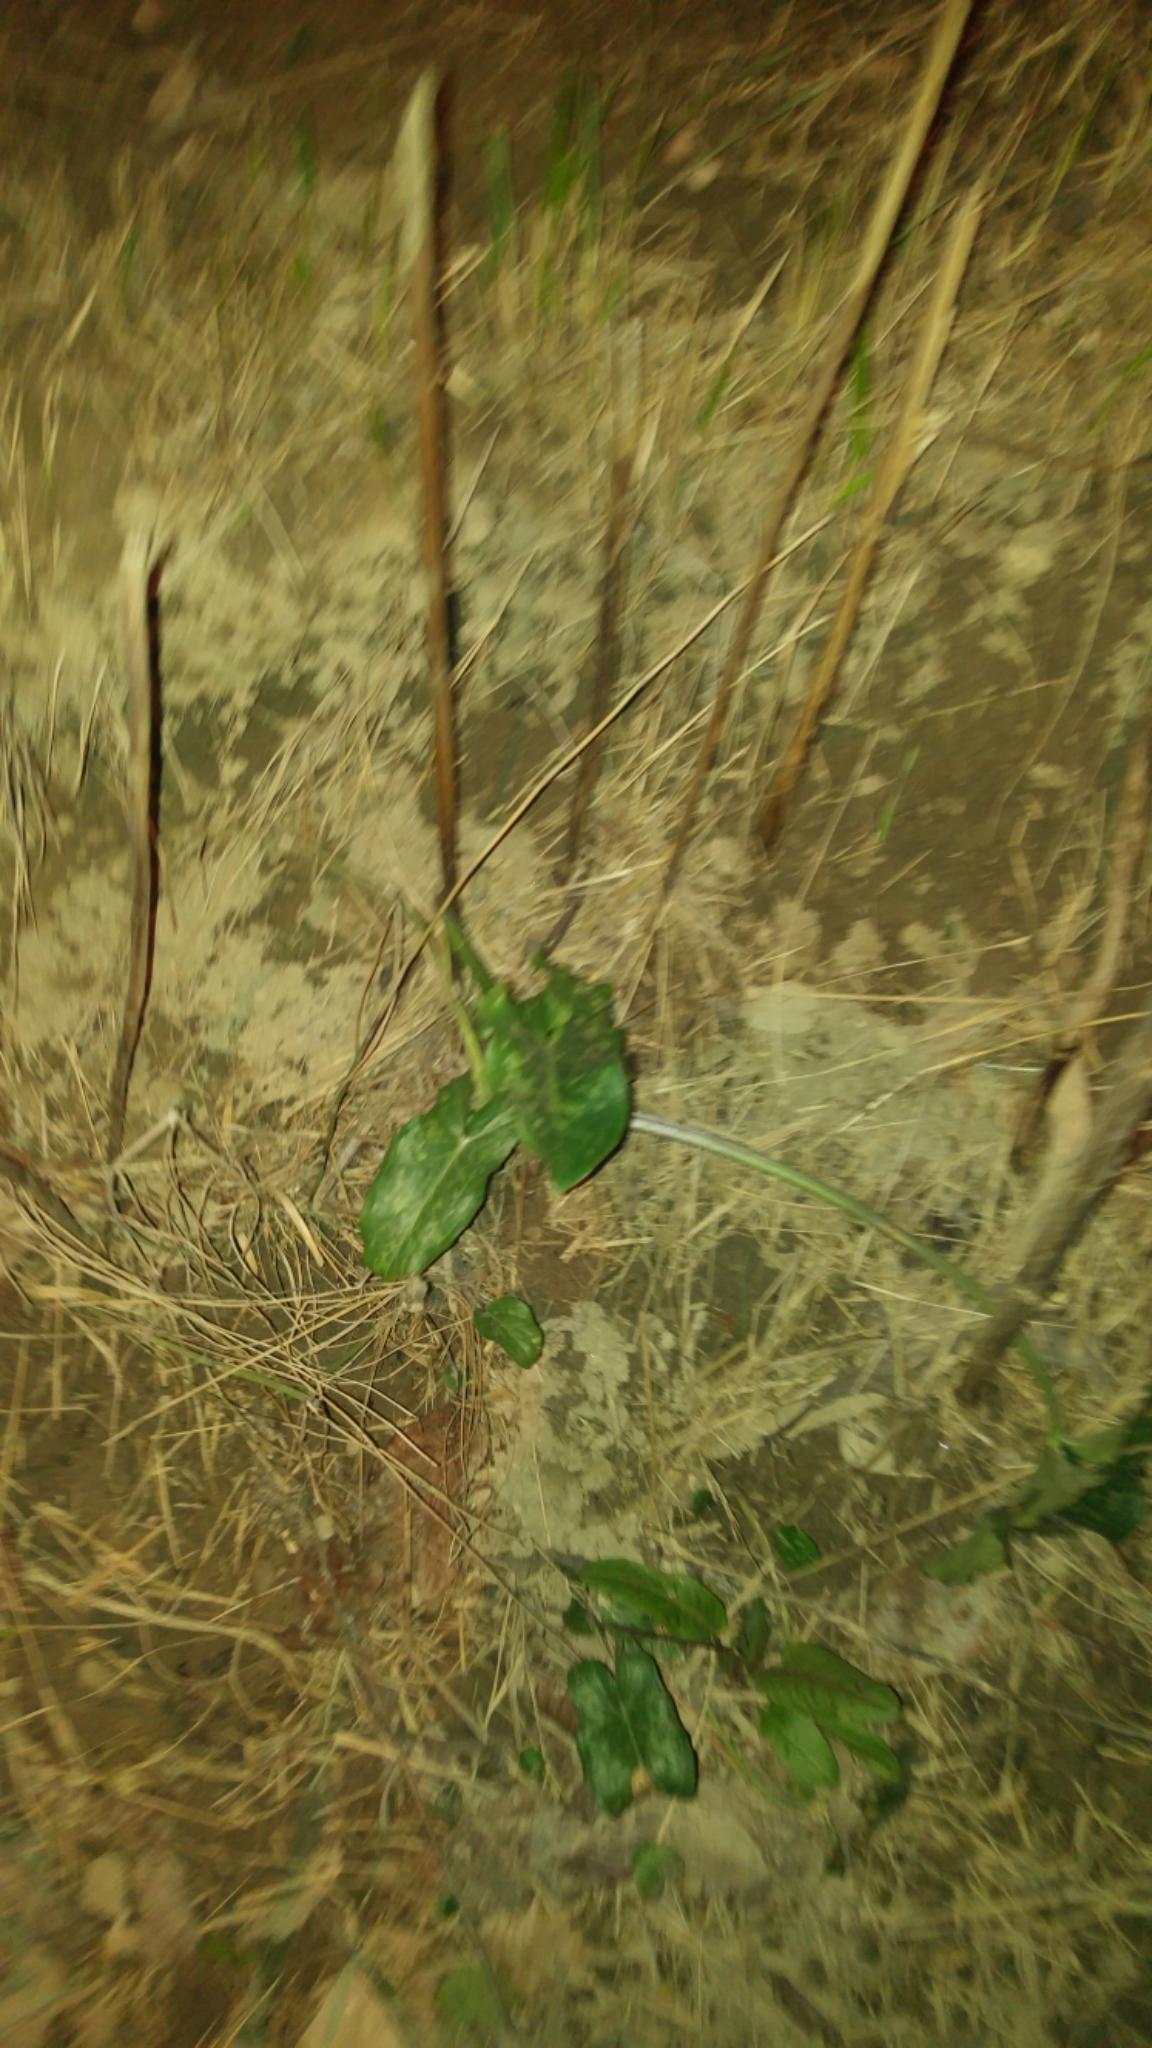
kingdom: Plantae
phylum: Tracheophyta
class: Liliopsida
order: Alismatales
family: Araceae
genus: Arum
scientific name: Arum italicum
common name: Italian lords-and-ladies
